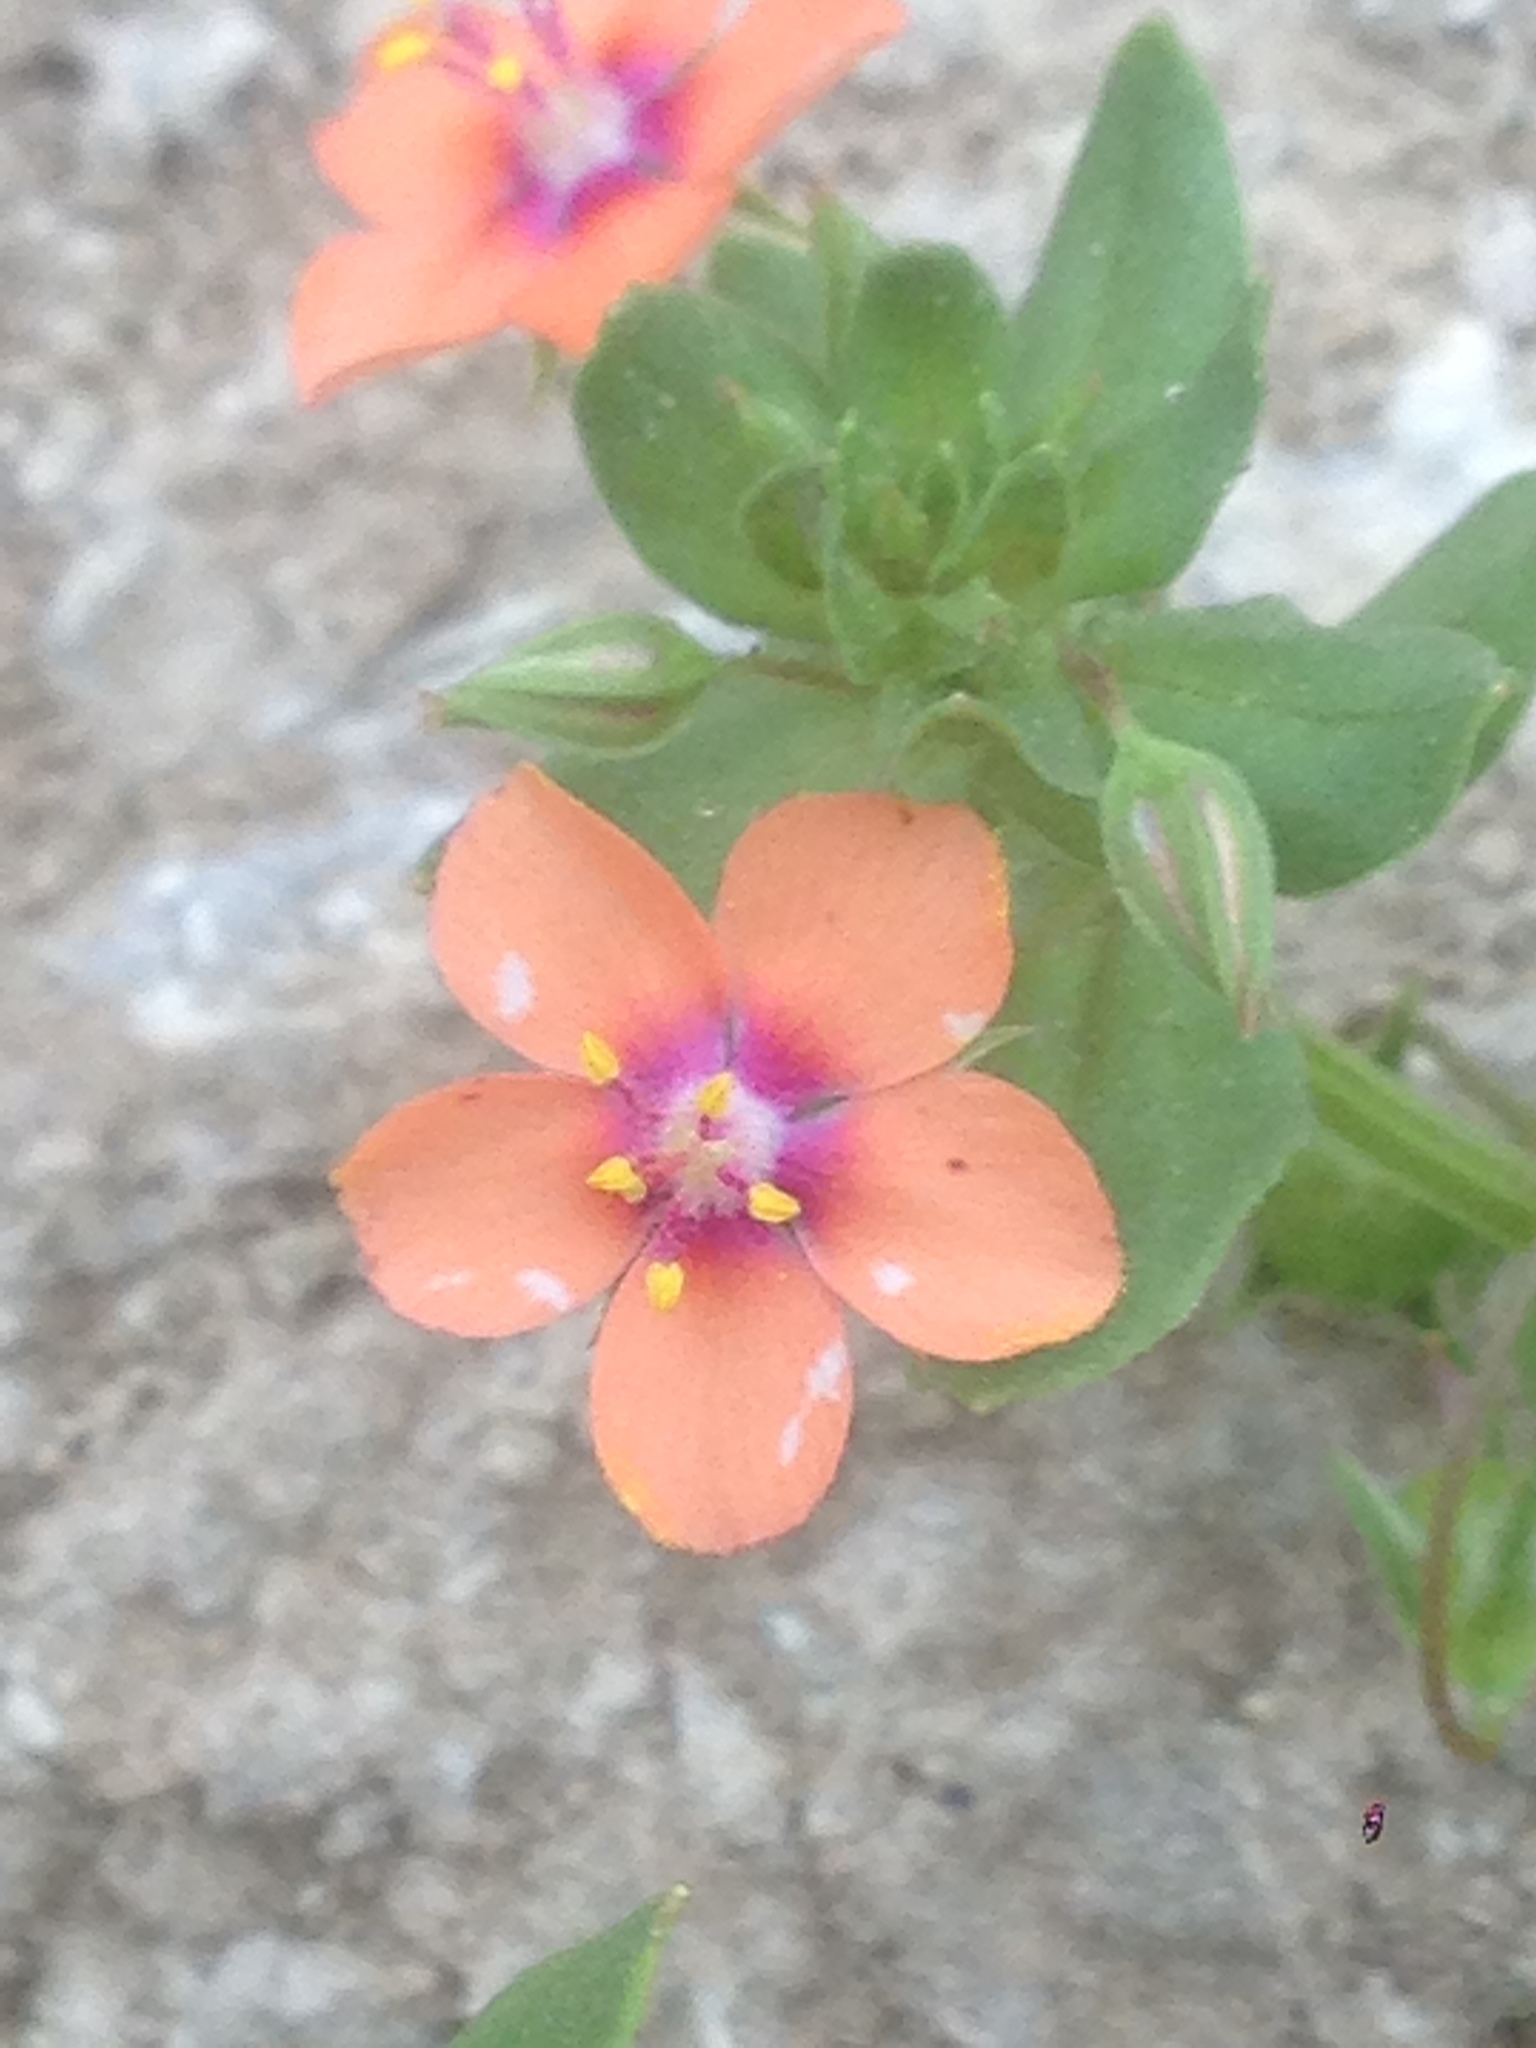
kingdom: Plantae
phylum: Tracheophyta
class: Magnoliopsida
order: Ericales
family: Primulaceae
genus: Lysimachia
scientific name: Lysimachia arvensis
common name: Scarlet pimpernel
